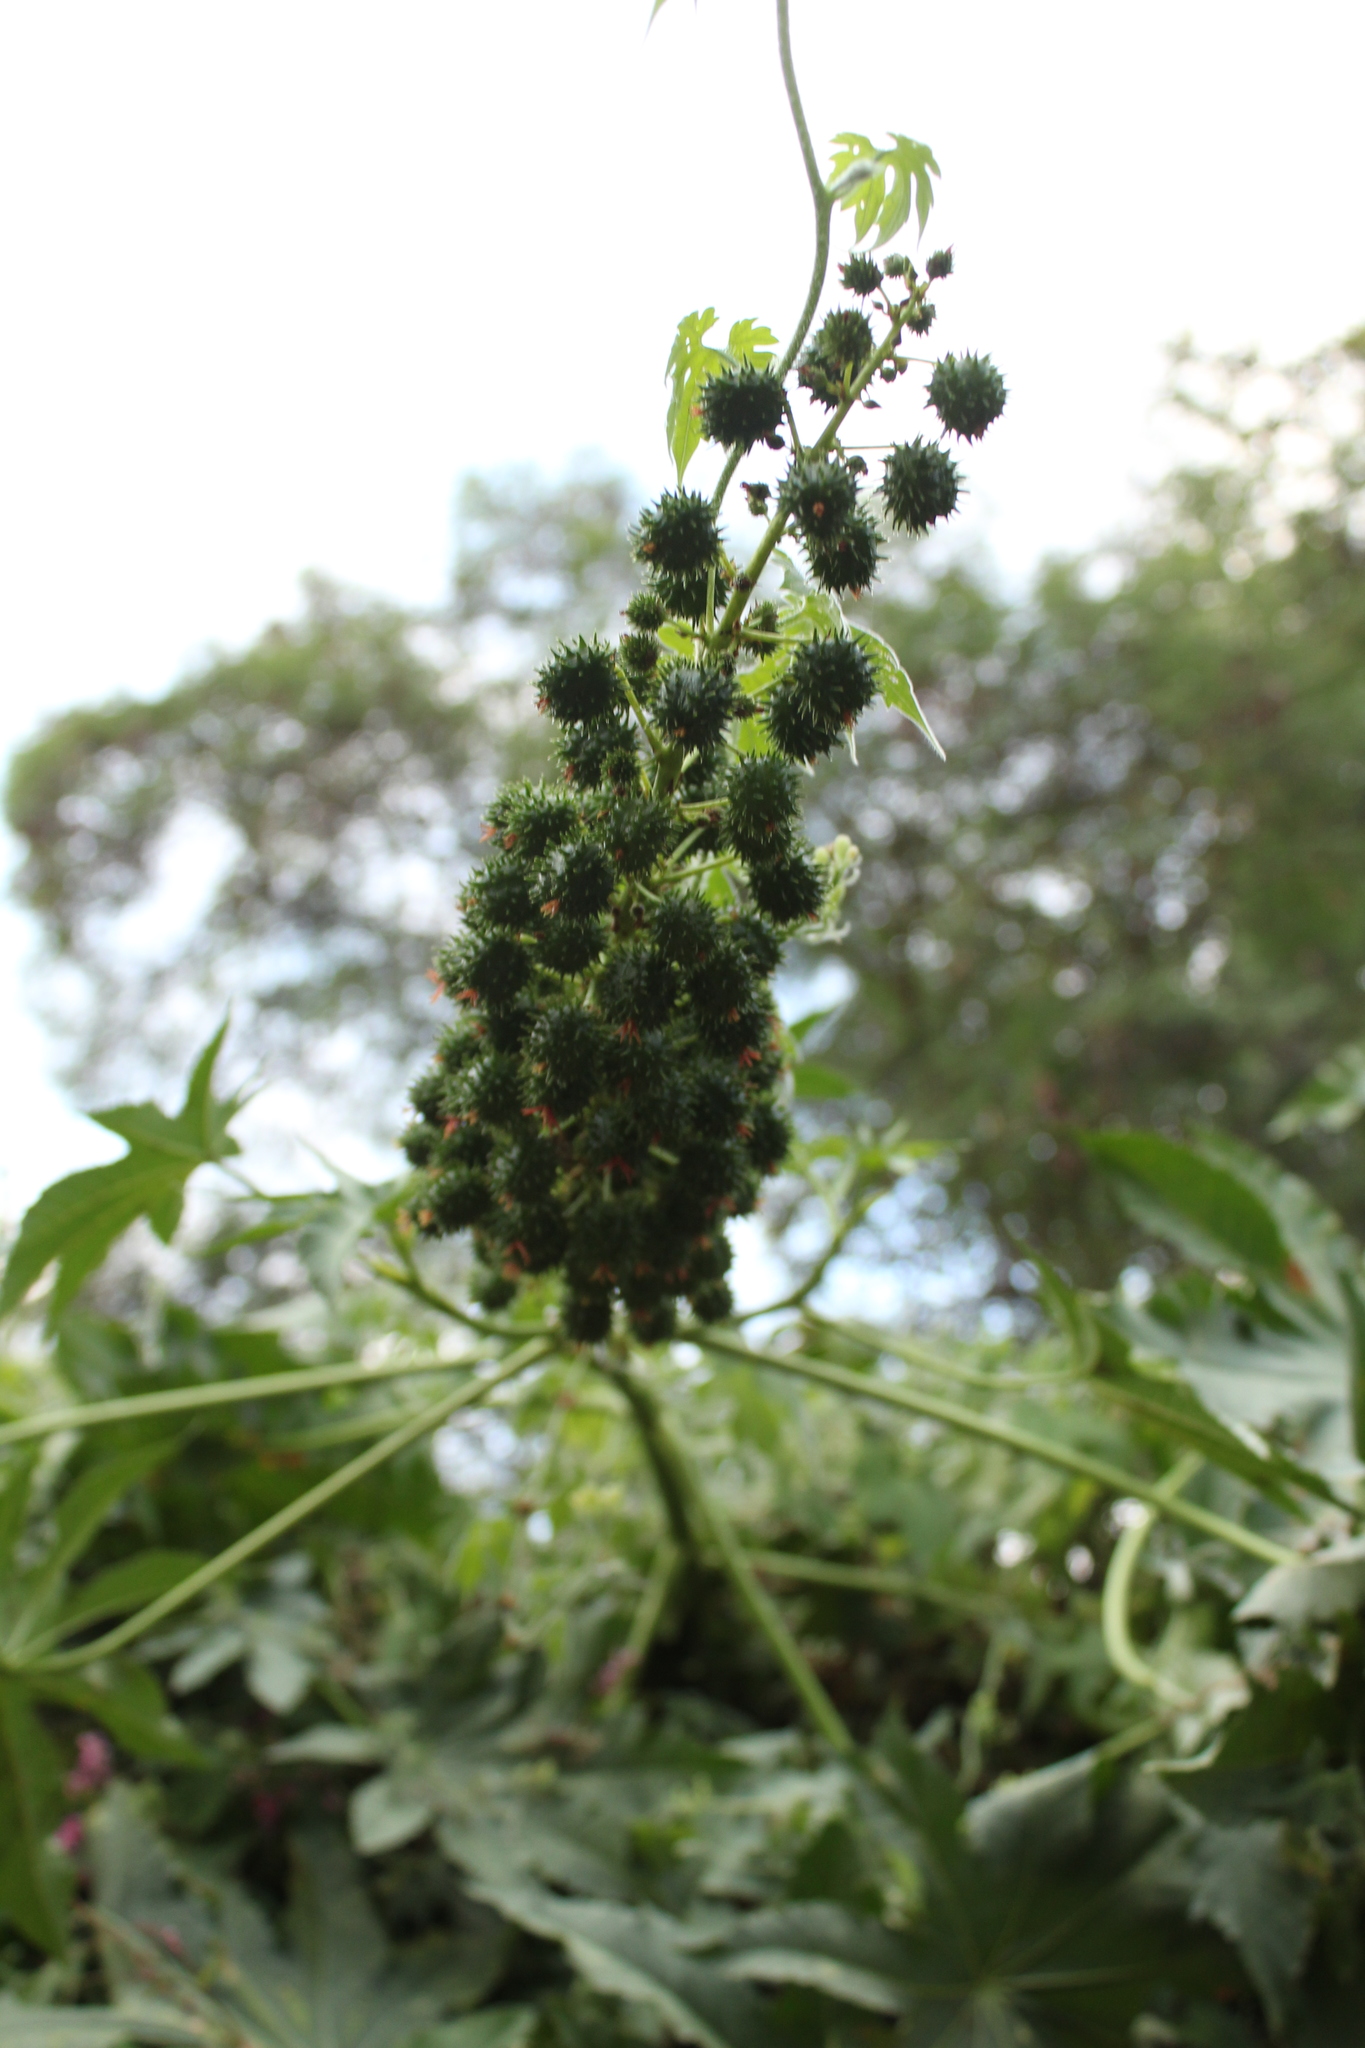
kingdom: Plantae
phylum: Tracheophyta
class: Magnoliopsida
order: Malpighiales
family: Euphorbiaceae
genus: Ricinus
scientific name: Ricinus communis
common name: Castor-oil-plant
